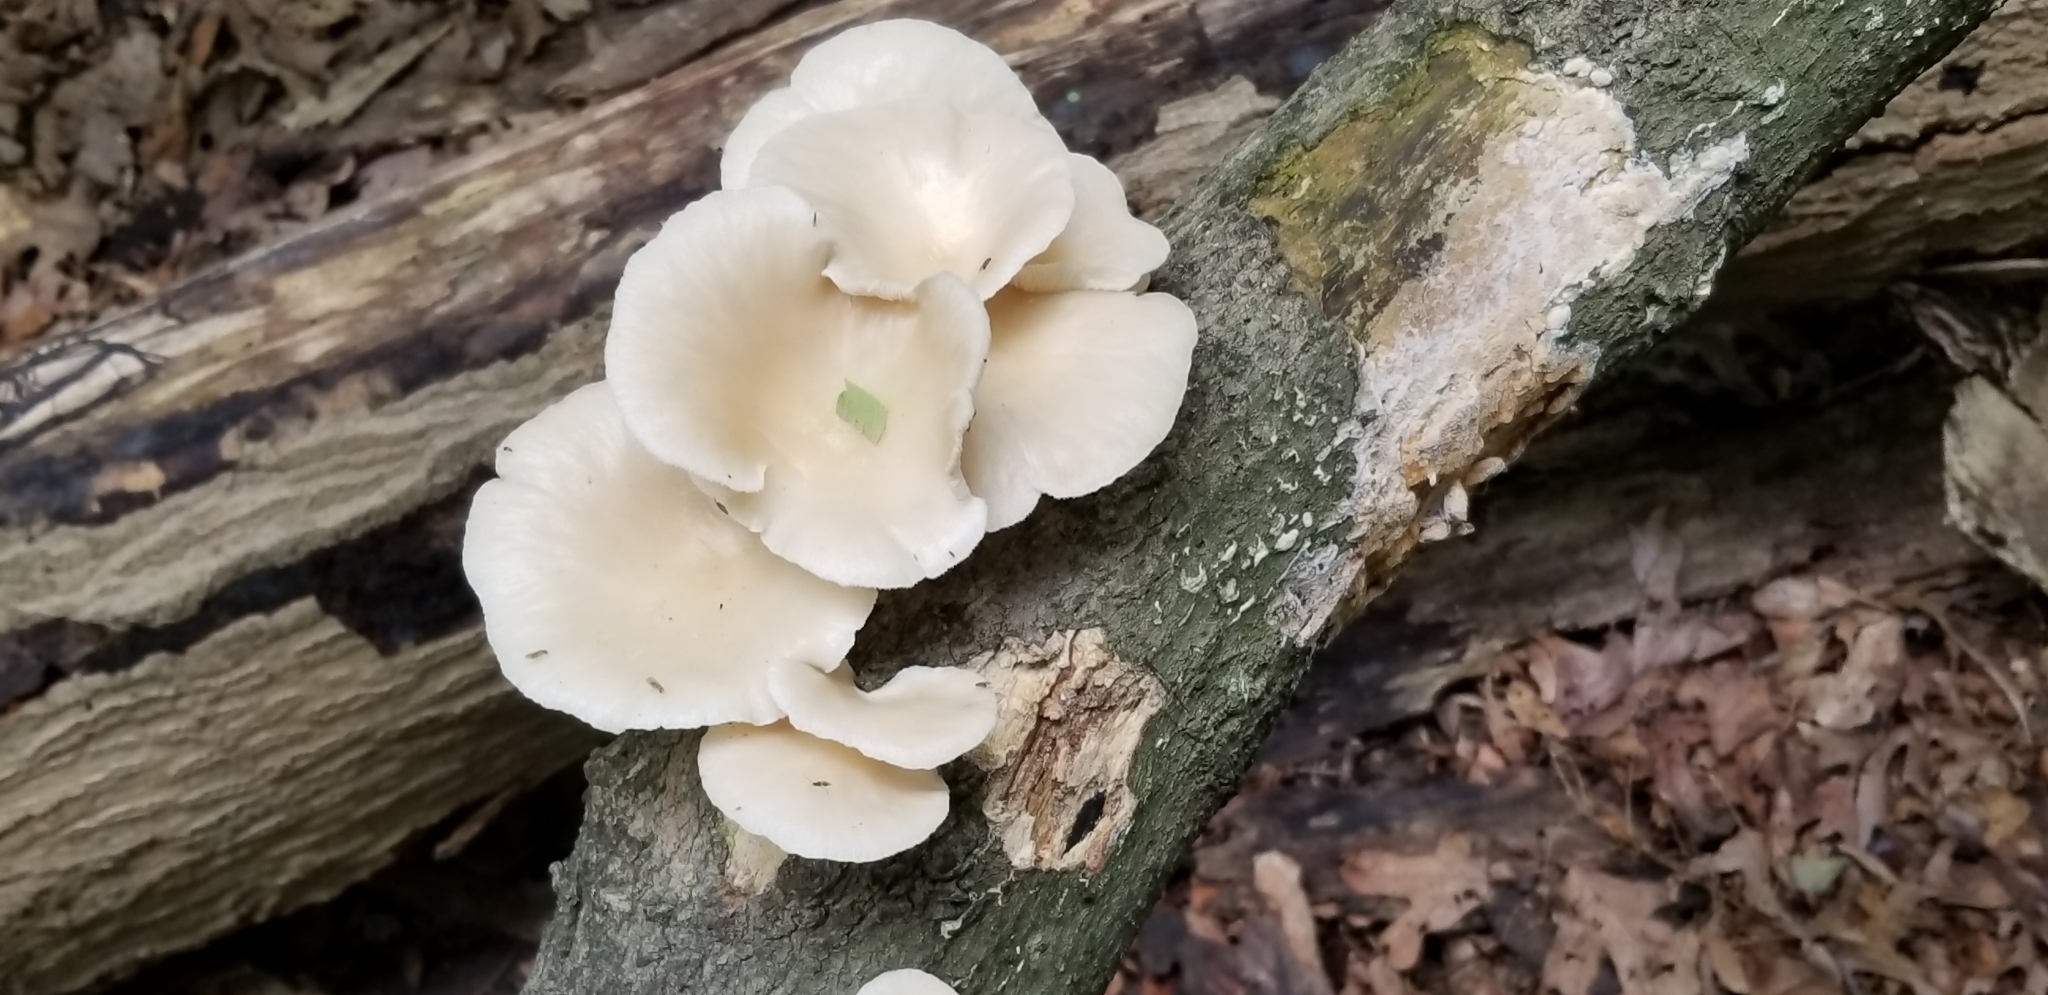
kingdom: Fungi
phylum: Basidiomycota
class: Agaricomycetes
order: Agaricales
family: Pleurotaceae
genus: Pleurotus
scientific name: Pleurotus ostreatus
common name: Oyster mushroom
